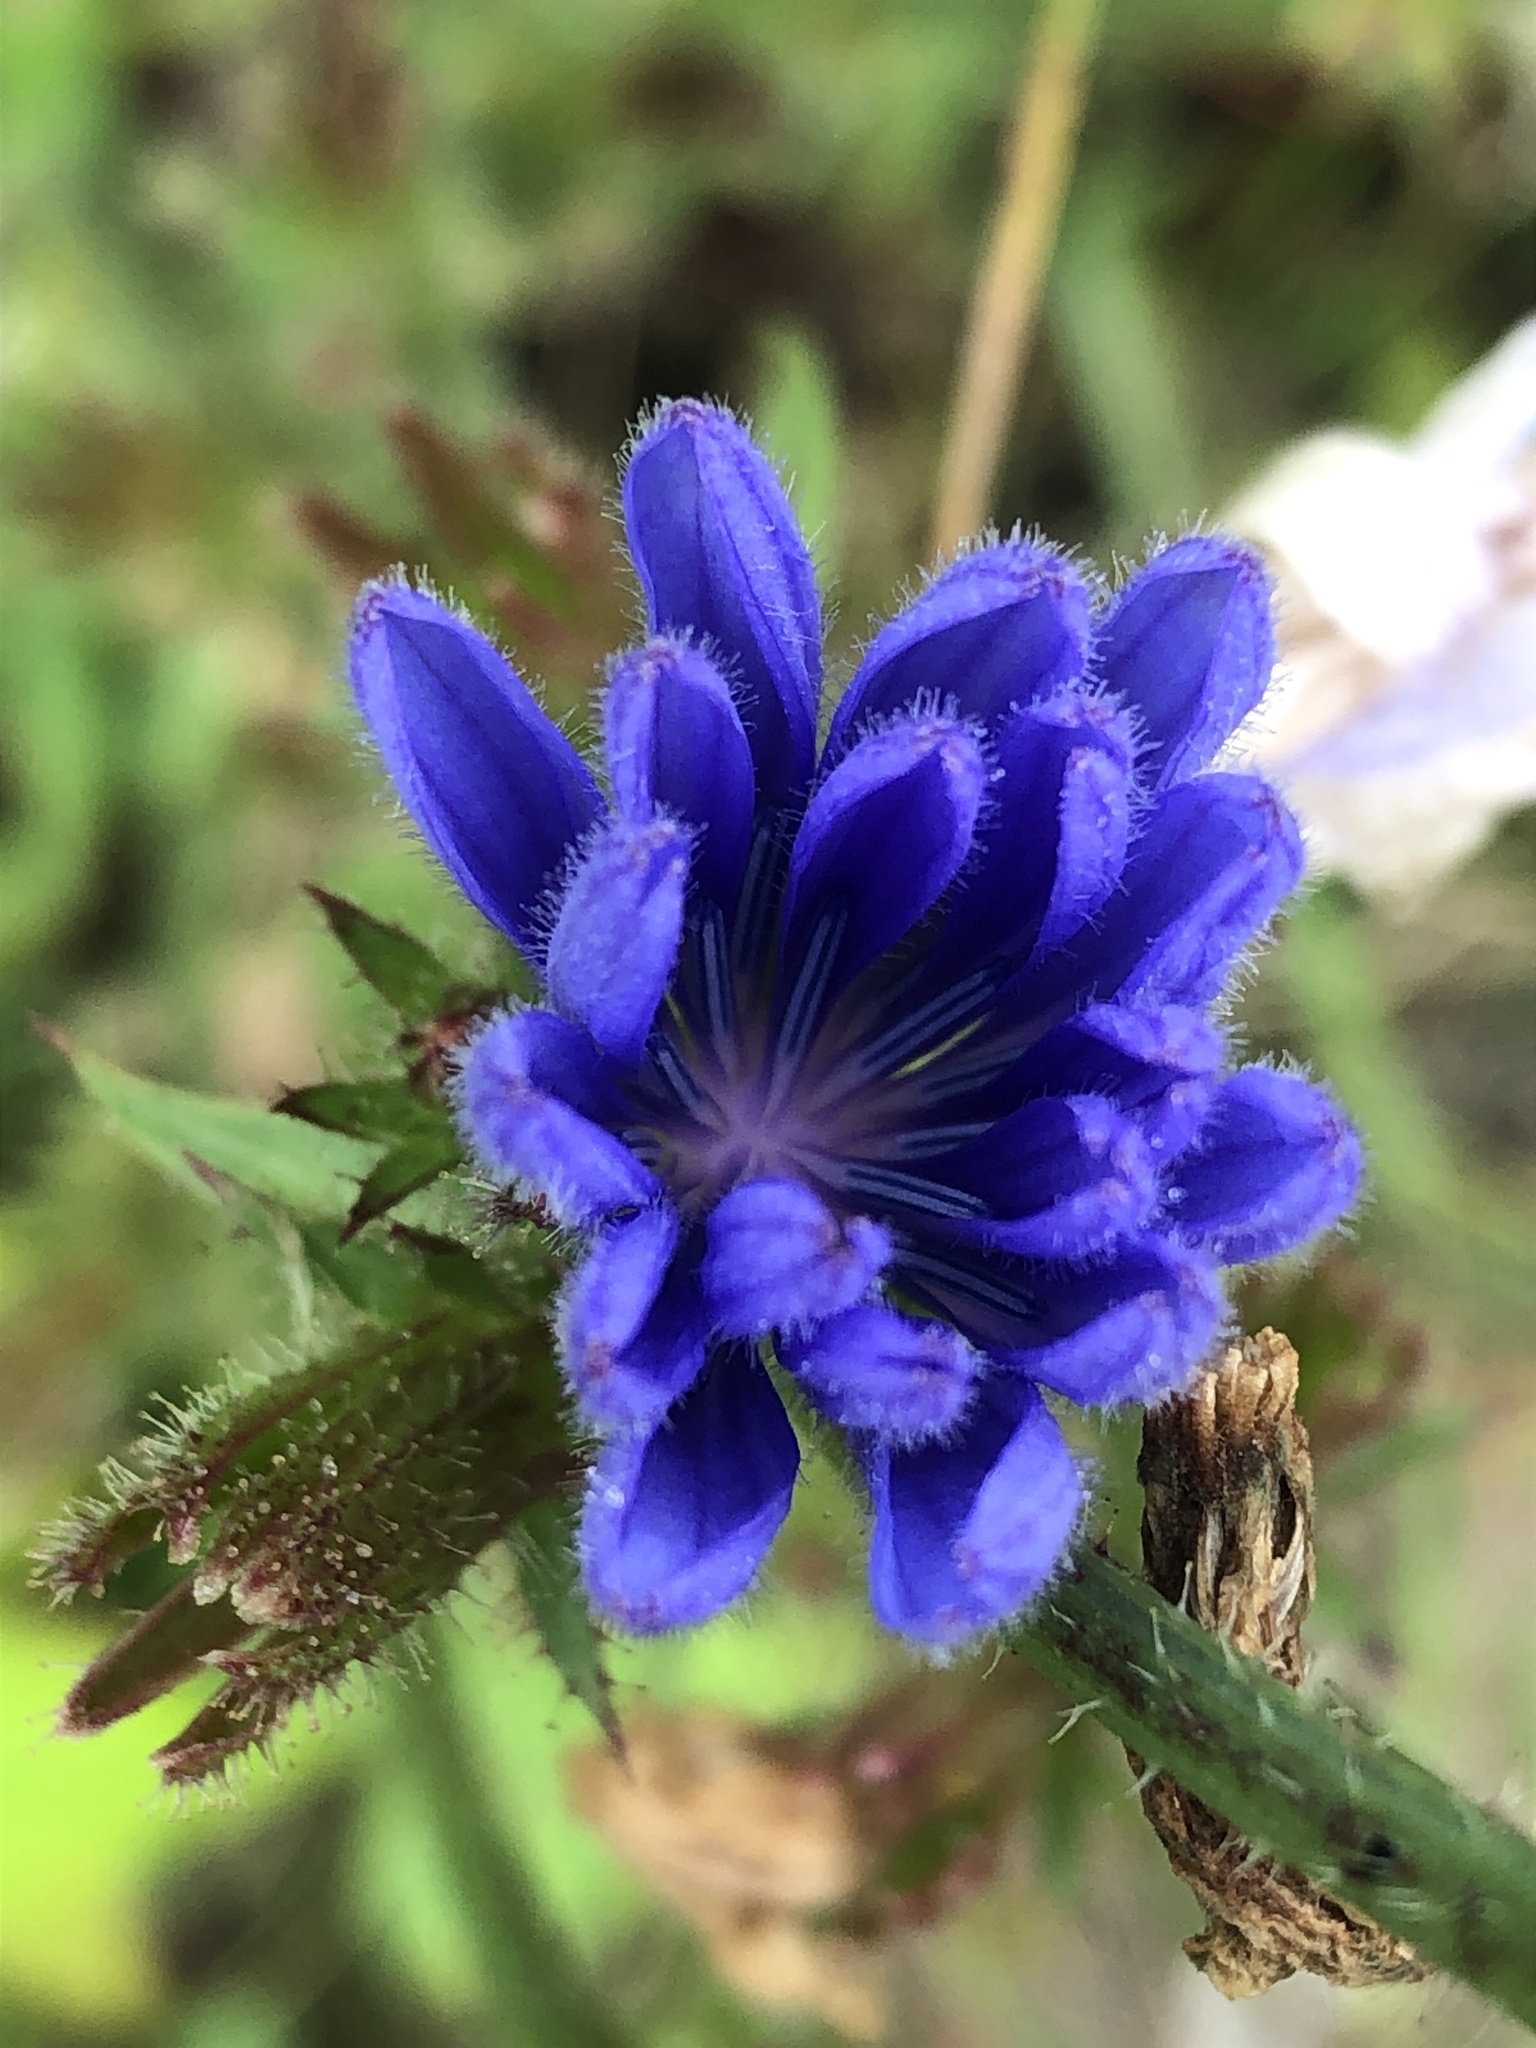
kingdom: Plantae
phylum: Tracheophyta
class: Magnoliopsida
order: Asterales
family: Asteraceae
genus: Cichorium
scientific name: Cichorium intybus
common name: Chicory
